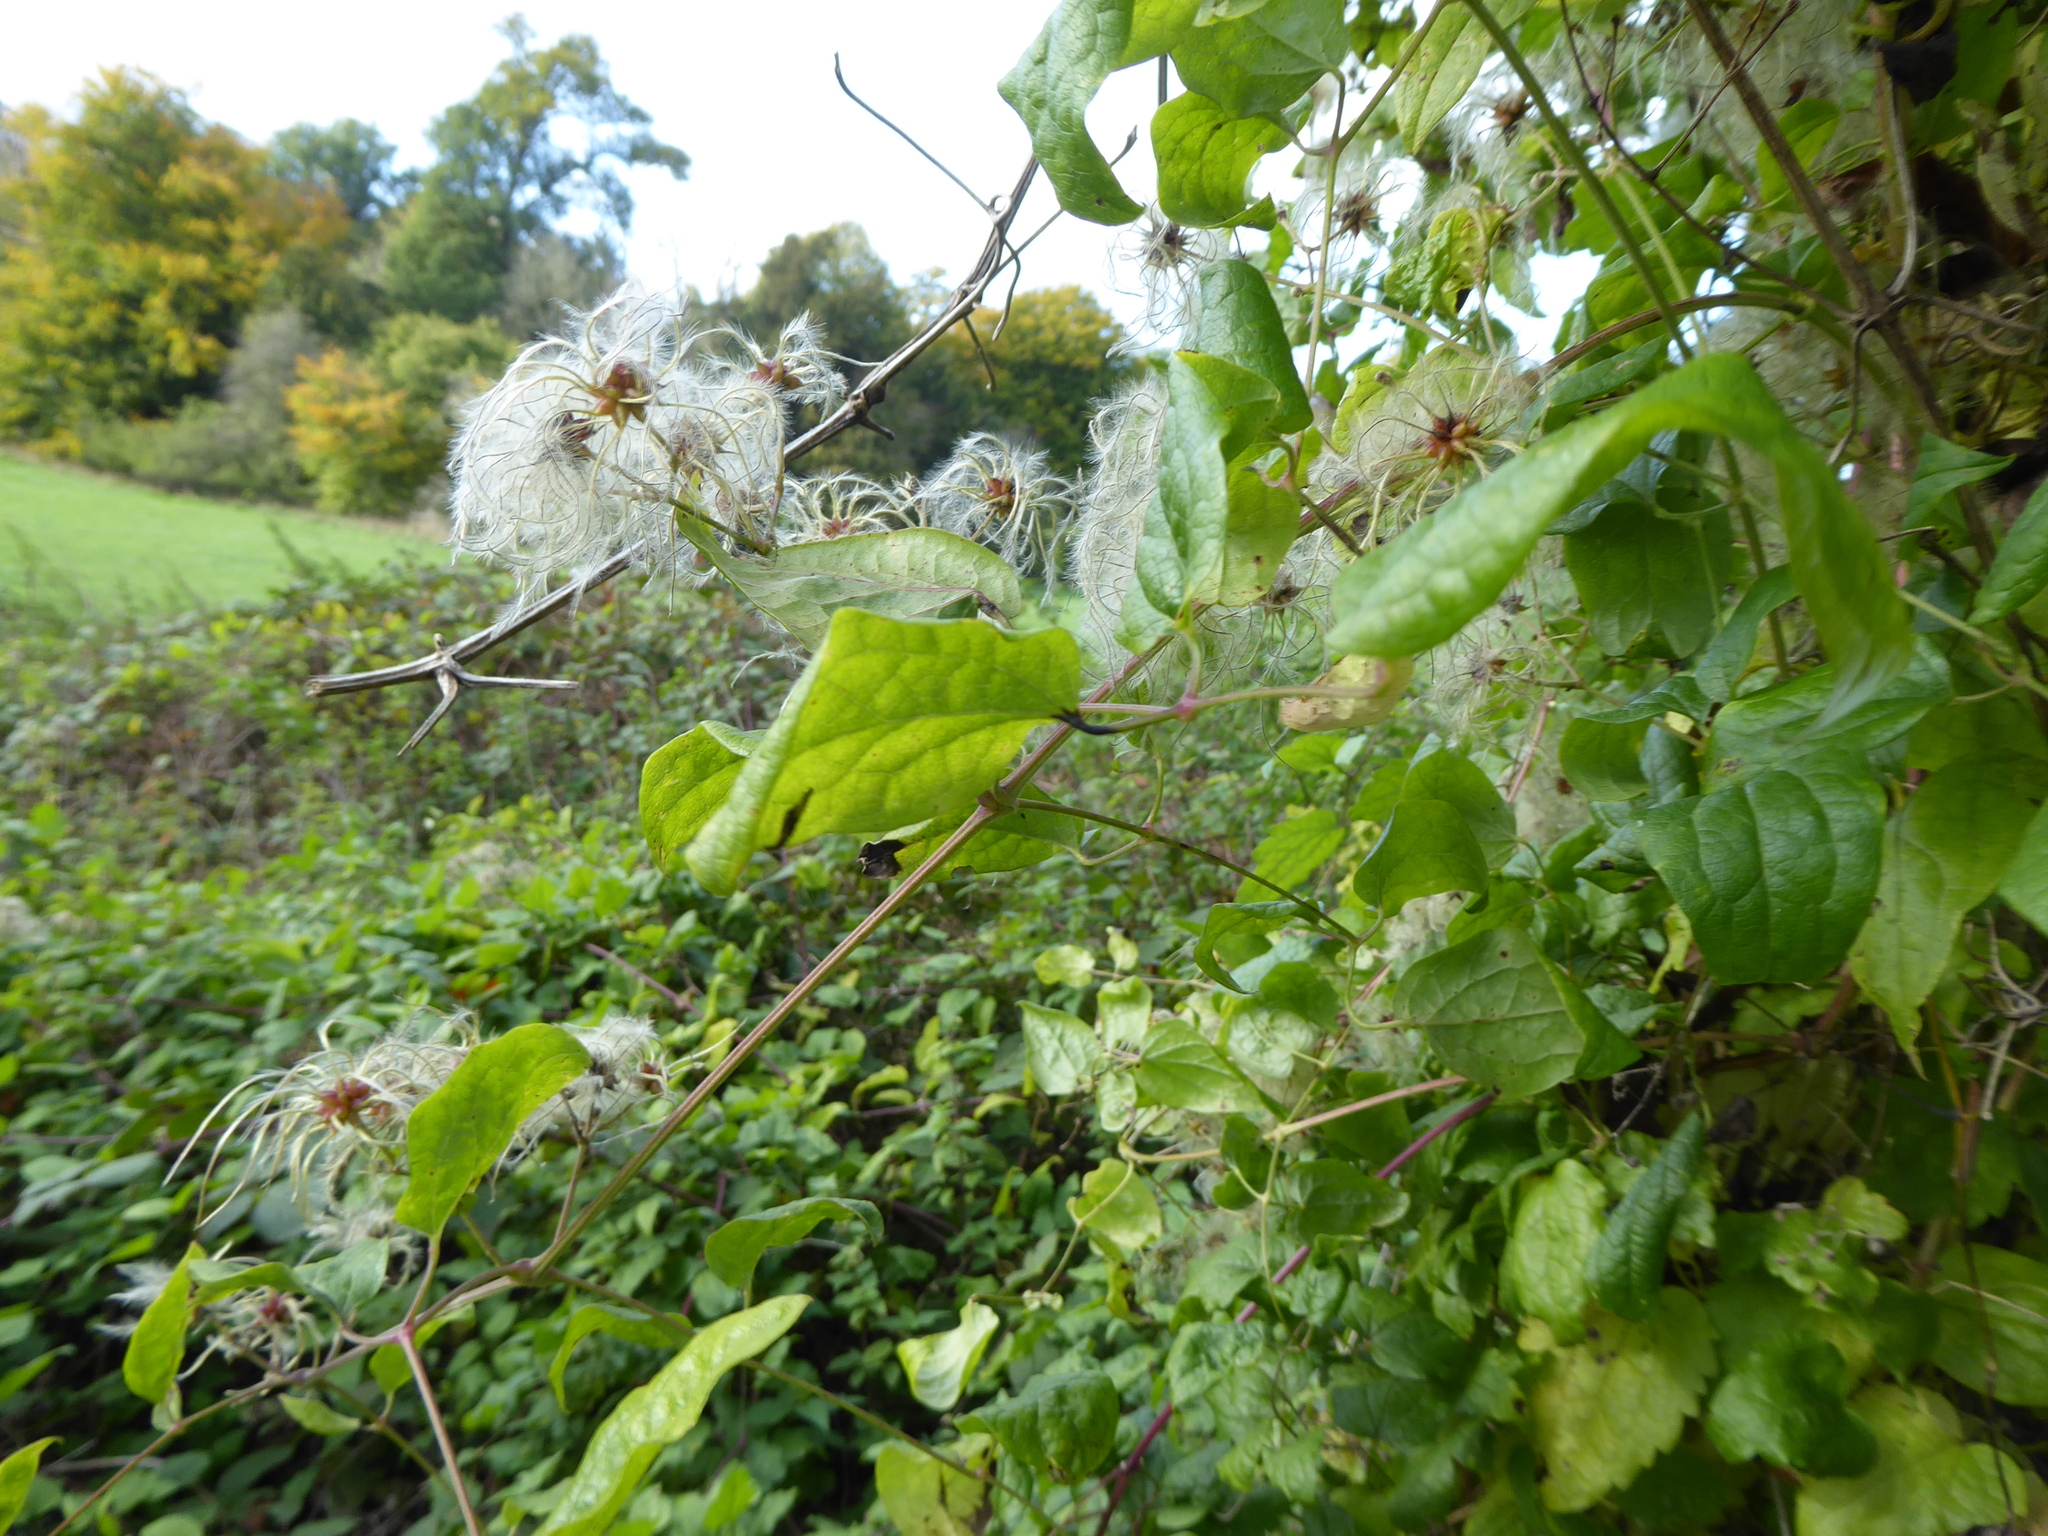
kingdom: Plantae
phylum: Tracheophyta
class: Magnoliopsida
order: Ranunculales
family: Ranunculaceae
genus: Clematis
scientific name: Clematis vitalba
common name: Evergreen clematis
